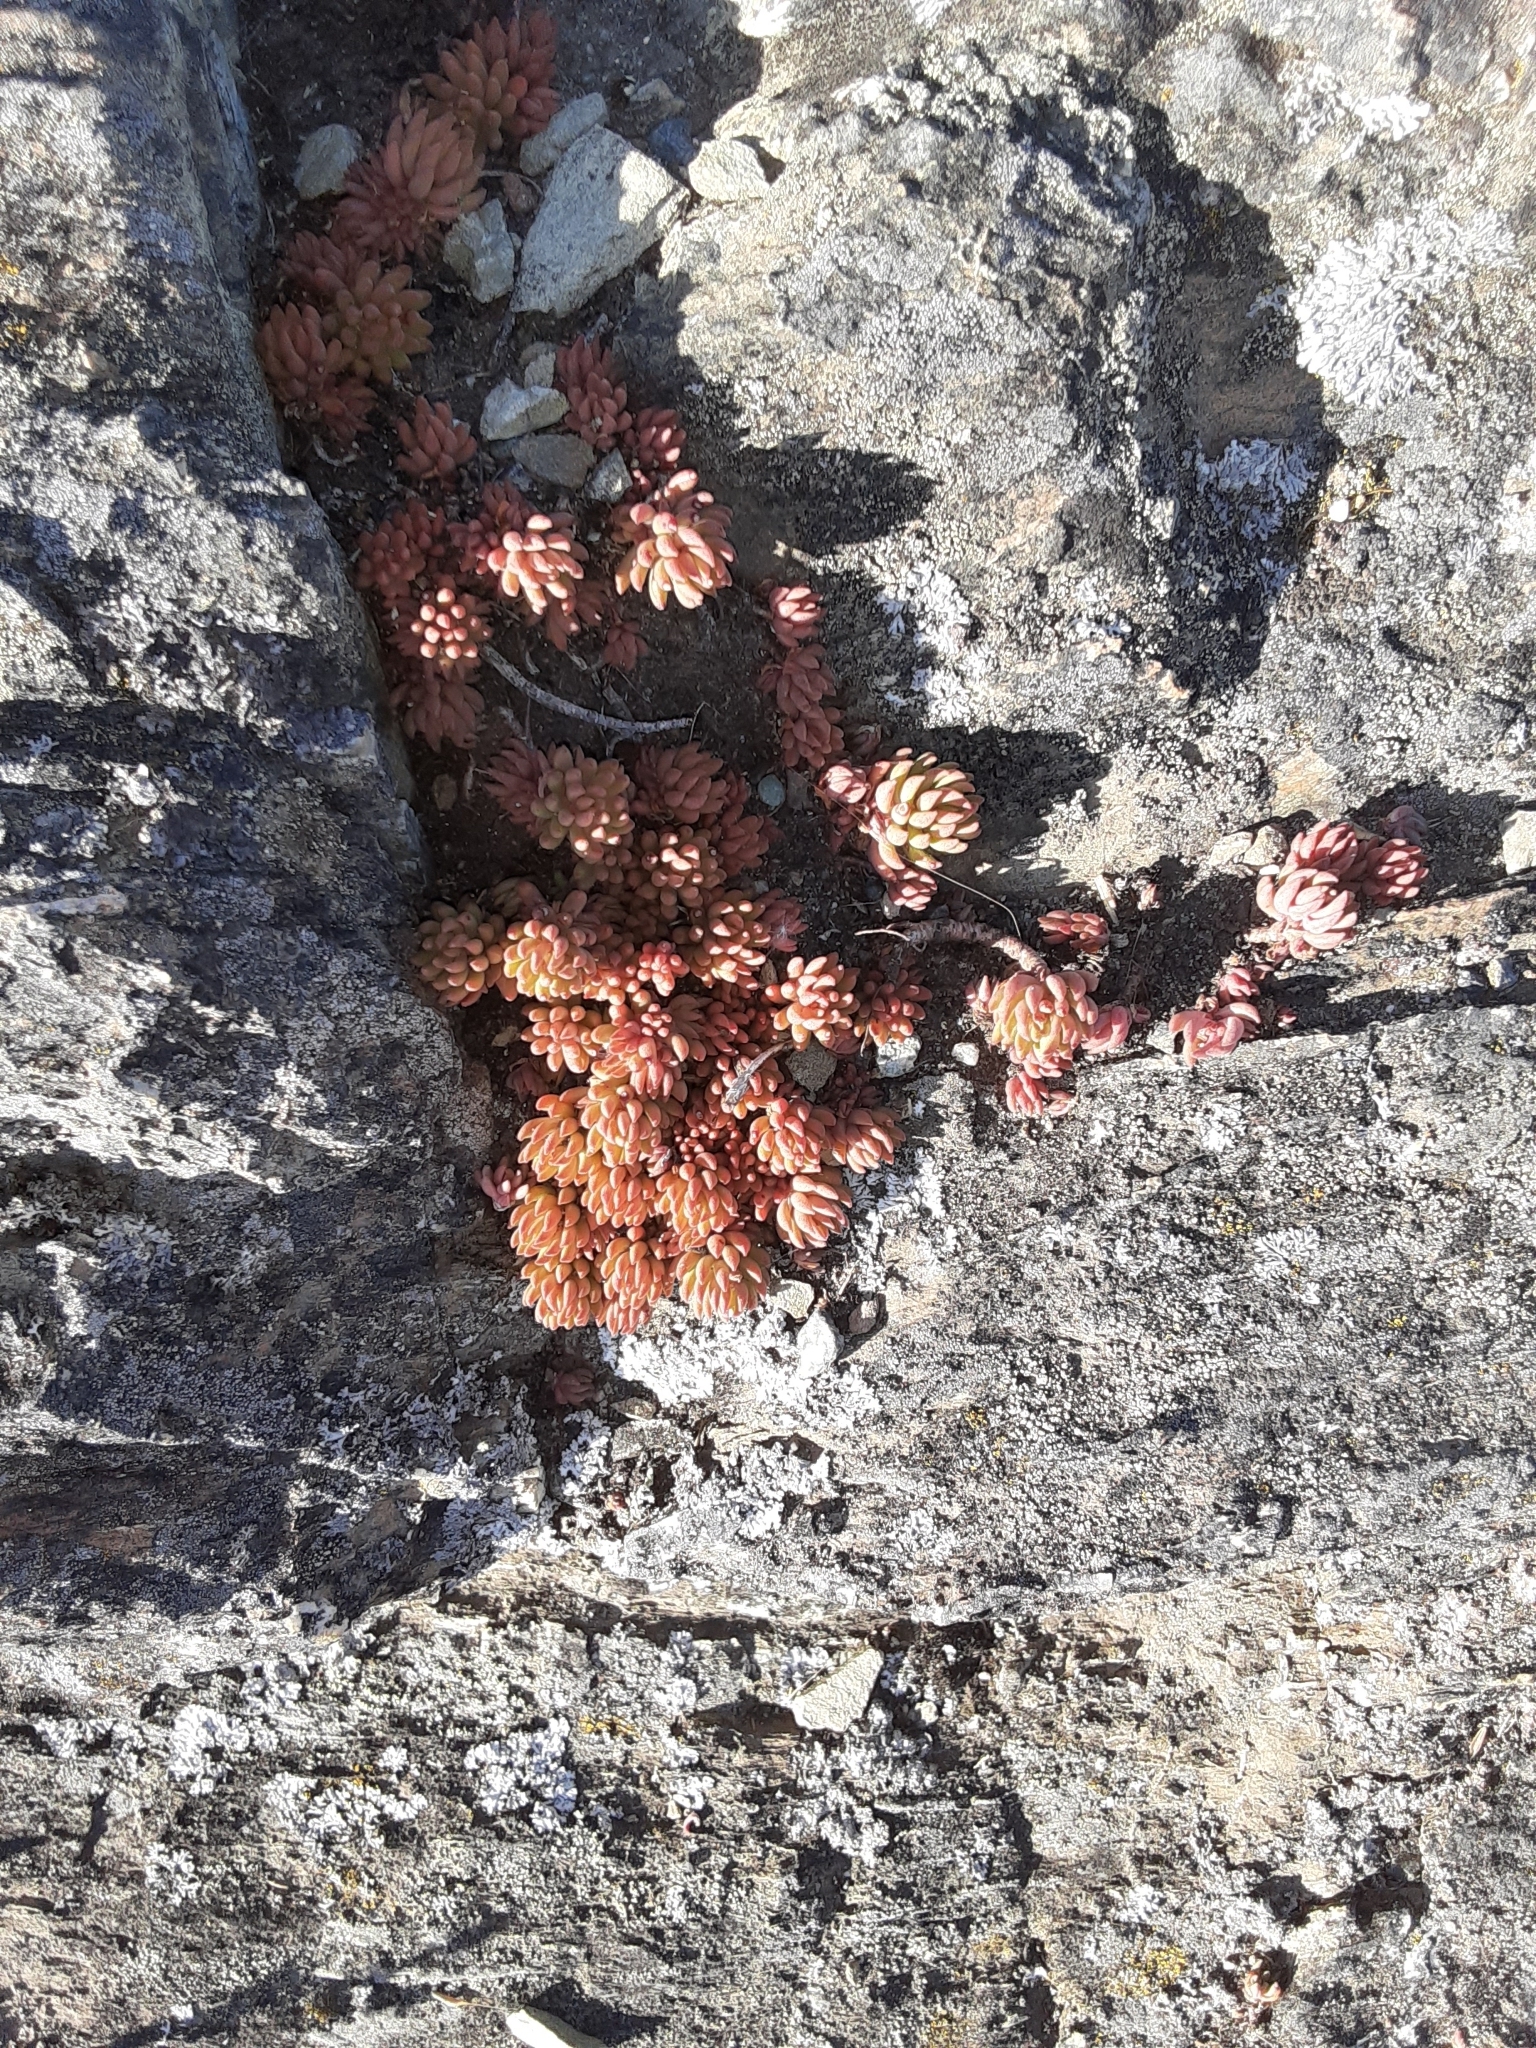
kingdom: Plantae
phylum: Tracheophyta
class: Magnoliopsida
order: Saxifragales
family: Crassulaceae
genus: Sedum
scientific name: Sedum lanceolatum
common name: Common stonecrop
